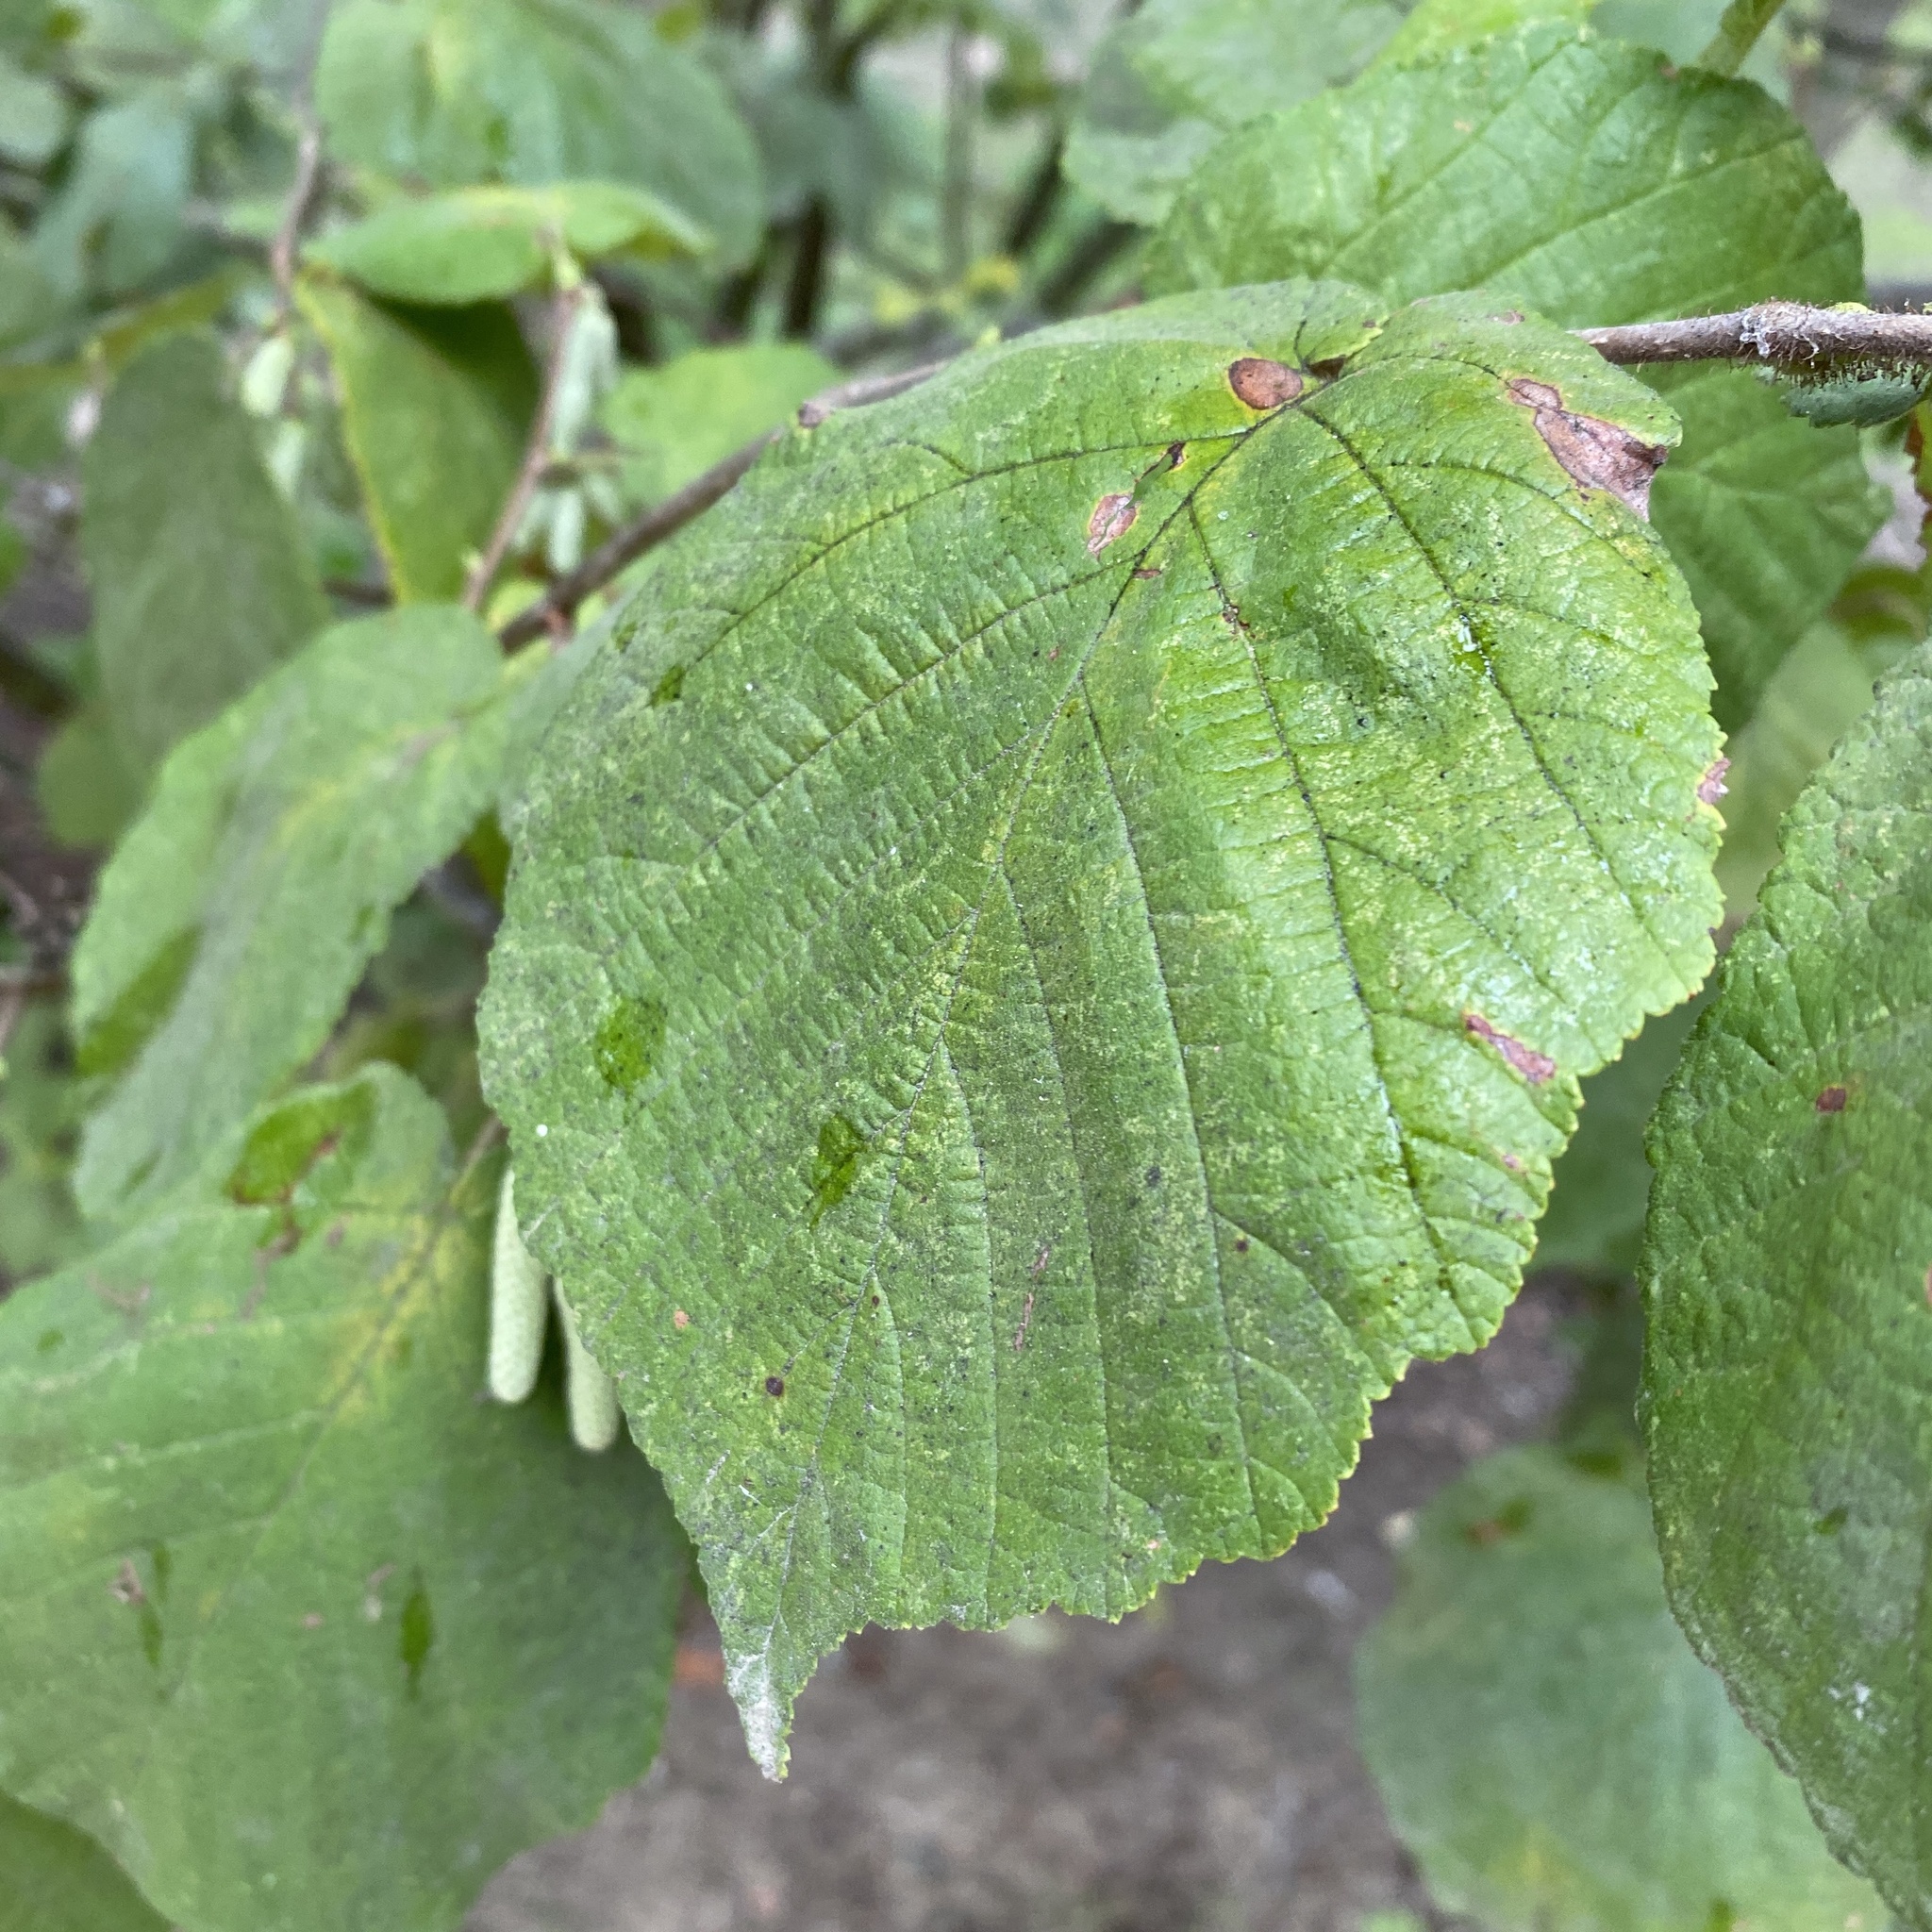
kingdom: Plantae
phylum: Tracheophyta
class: Magnoliopsida
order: Fagales
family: Betulaceae
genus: Corylus
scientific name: Corylus avellana
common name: European hazel
